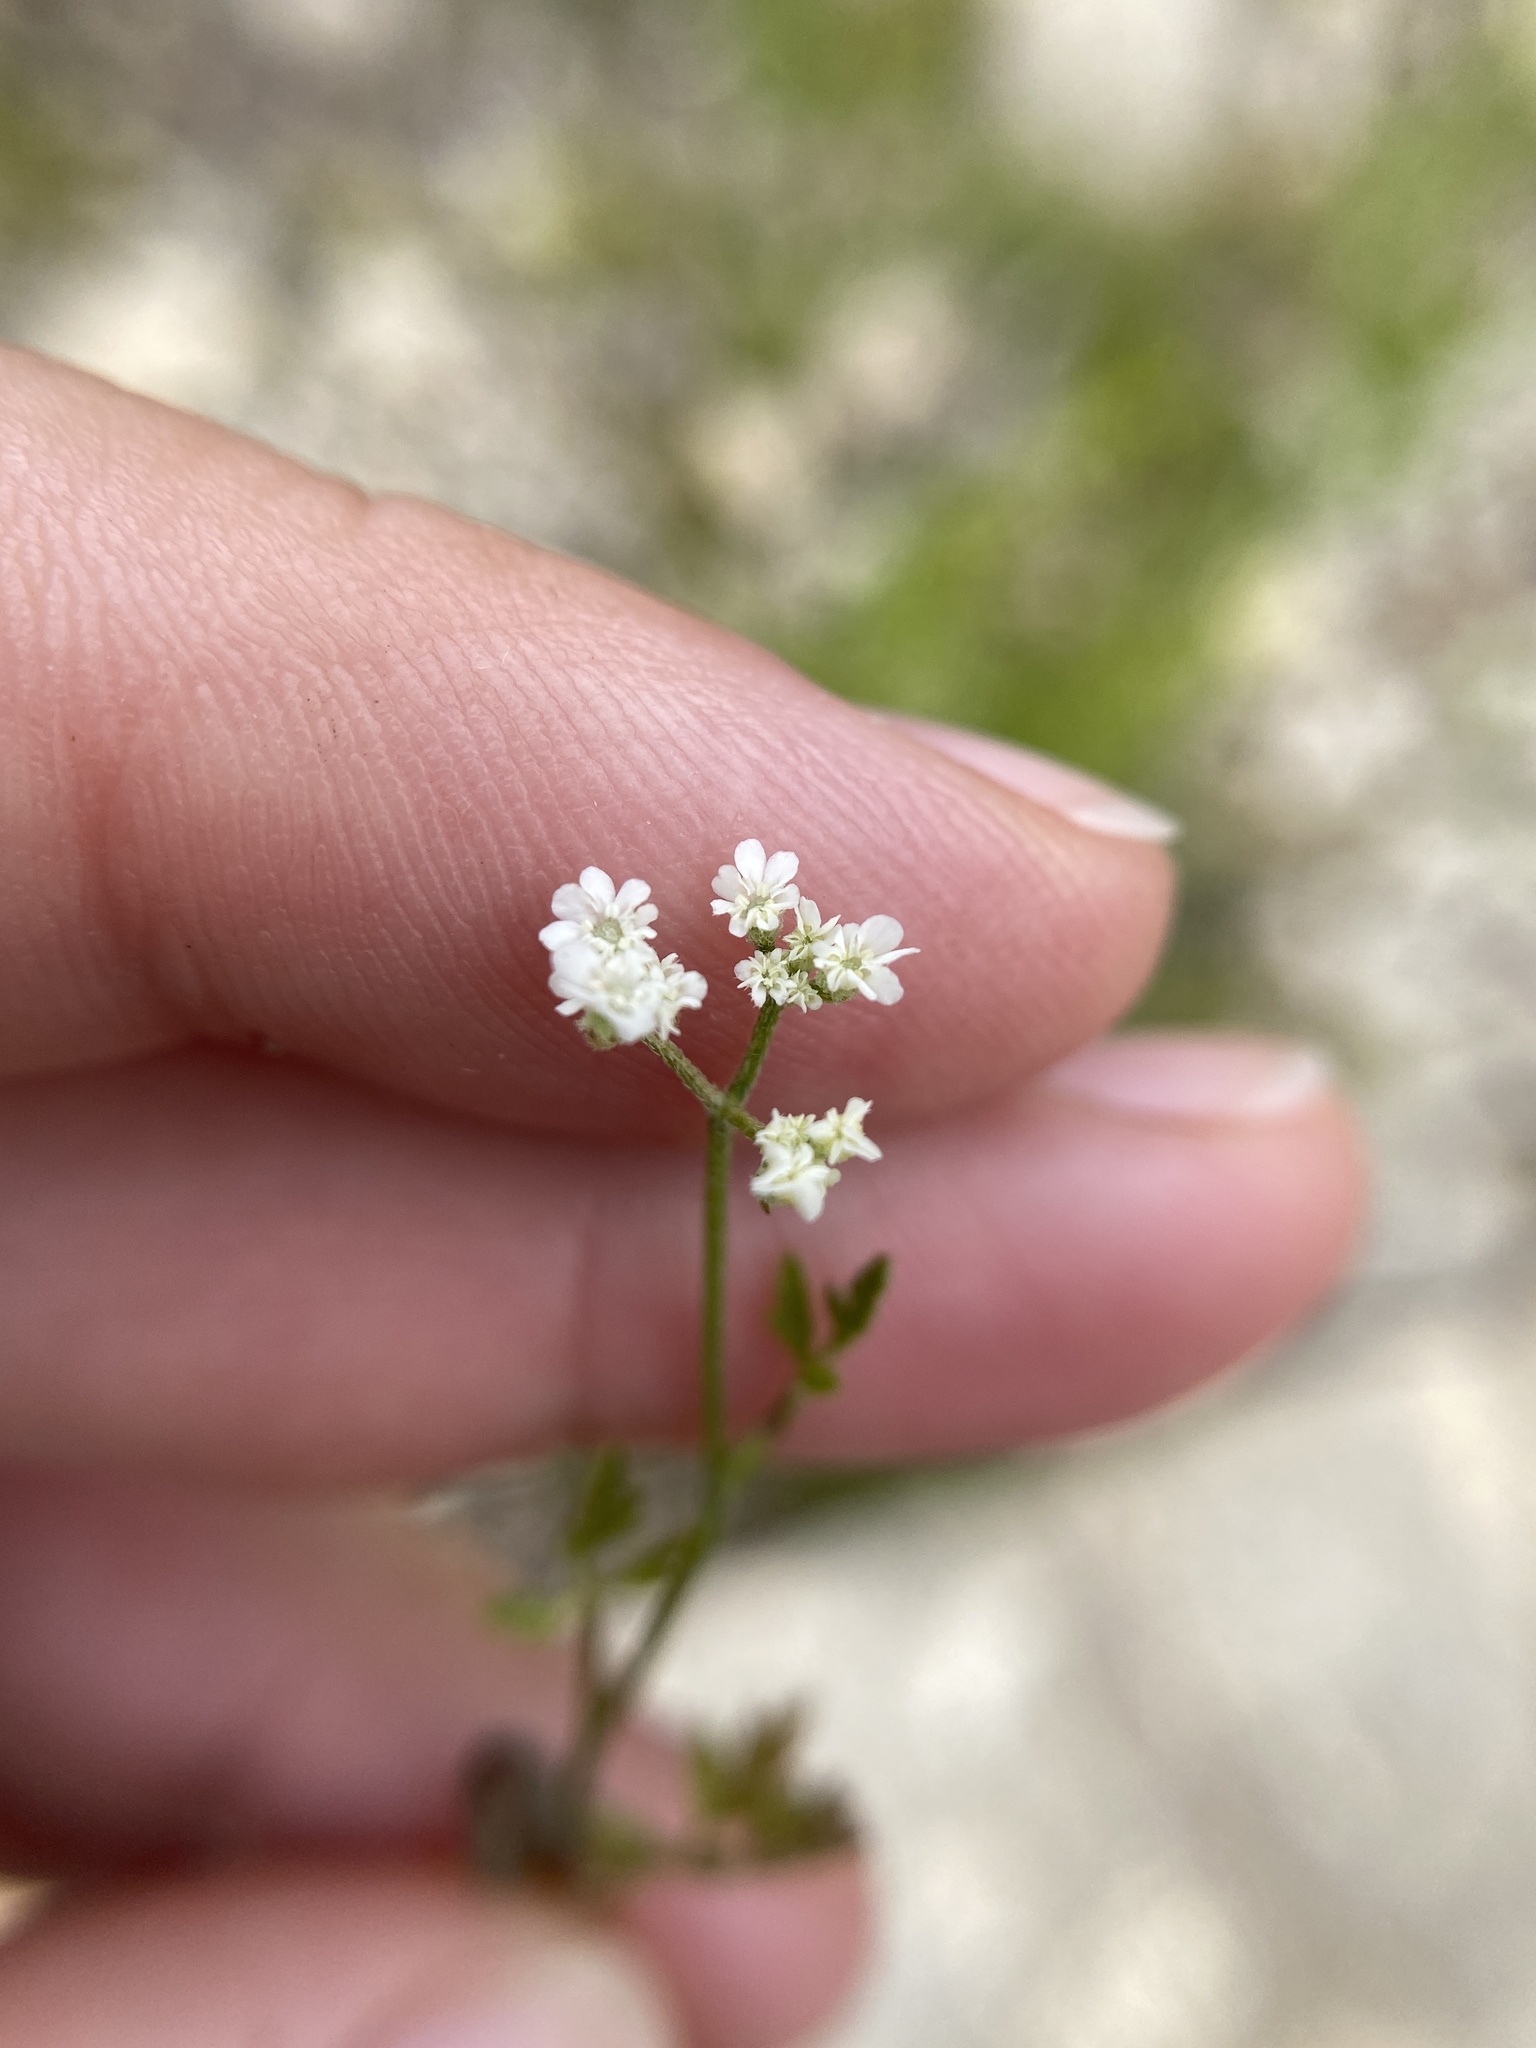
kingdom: Plantae
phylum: Tracheophyta
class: Magnoliopsida
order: Apiales
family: Apiaceae
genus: Torilis
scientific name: Torilis arvensis
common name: Spreading hedge-parsley
